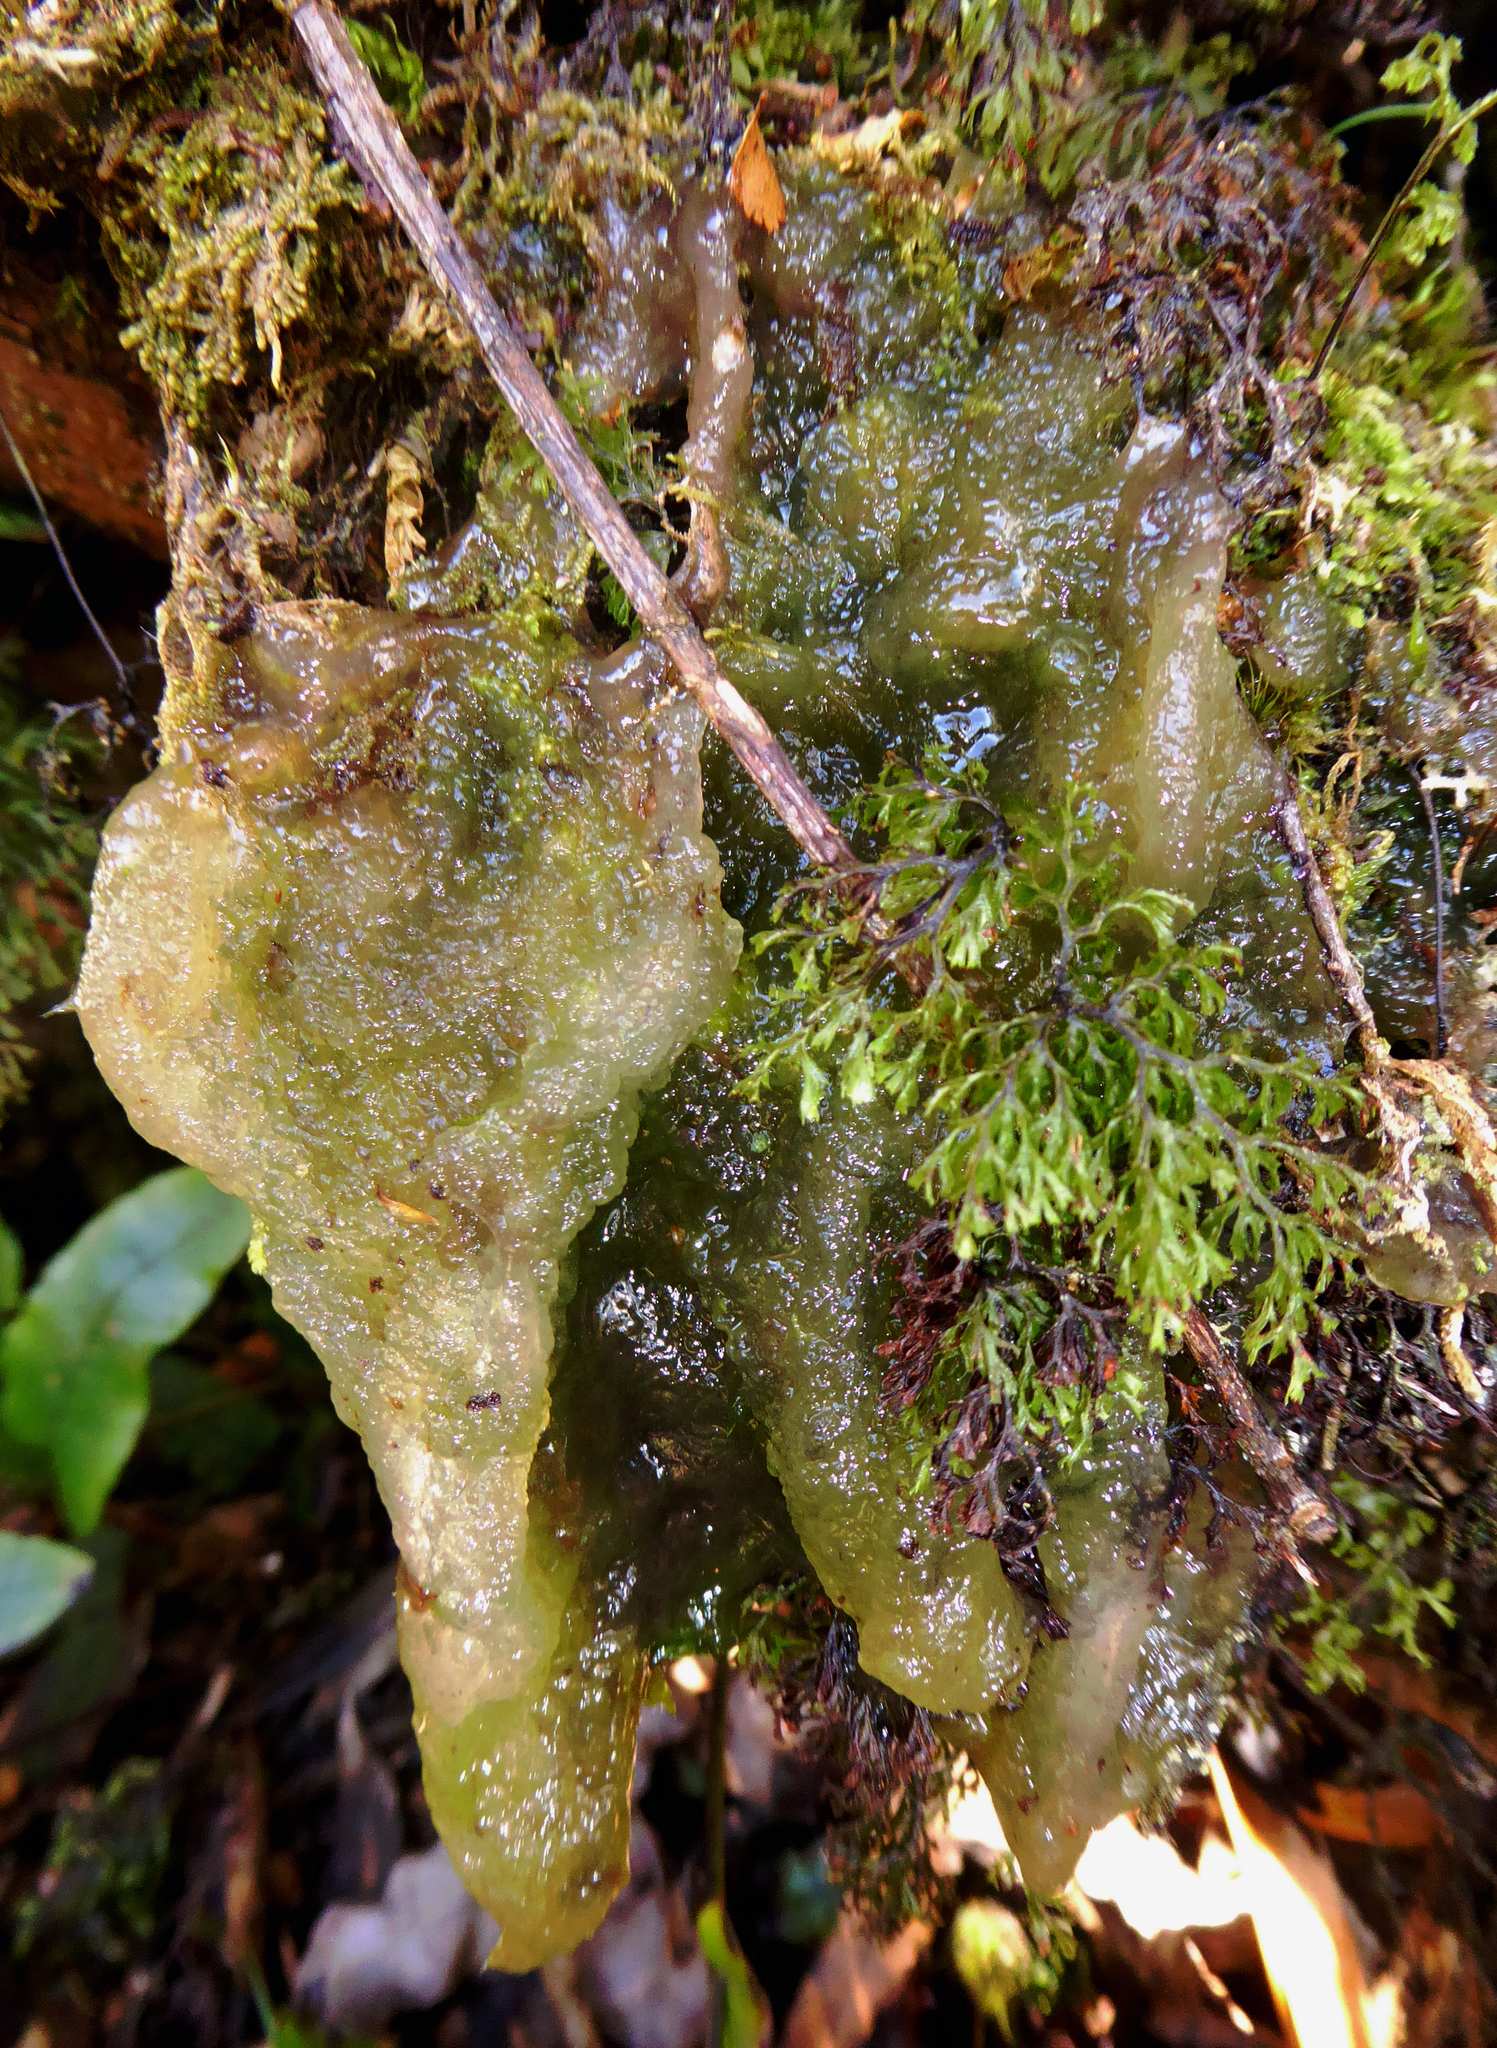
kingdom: Plantae
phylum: Charophyta
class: Zygnematophyceae
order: Zygnematales
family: Mesotaeniaceae
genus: Mesotaenium
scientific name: Mesotaenium macrococcum
